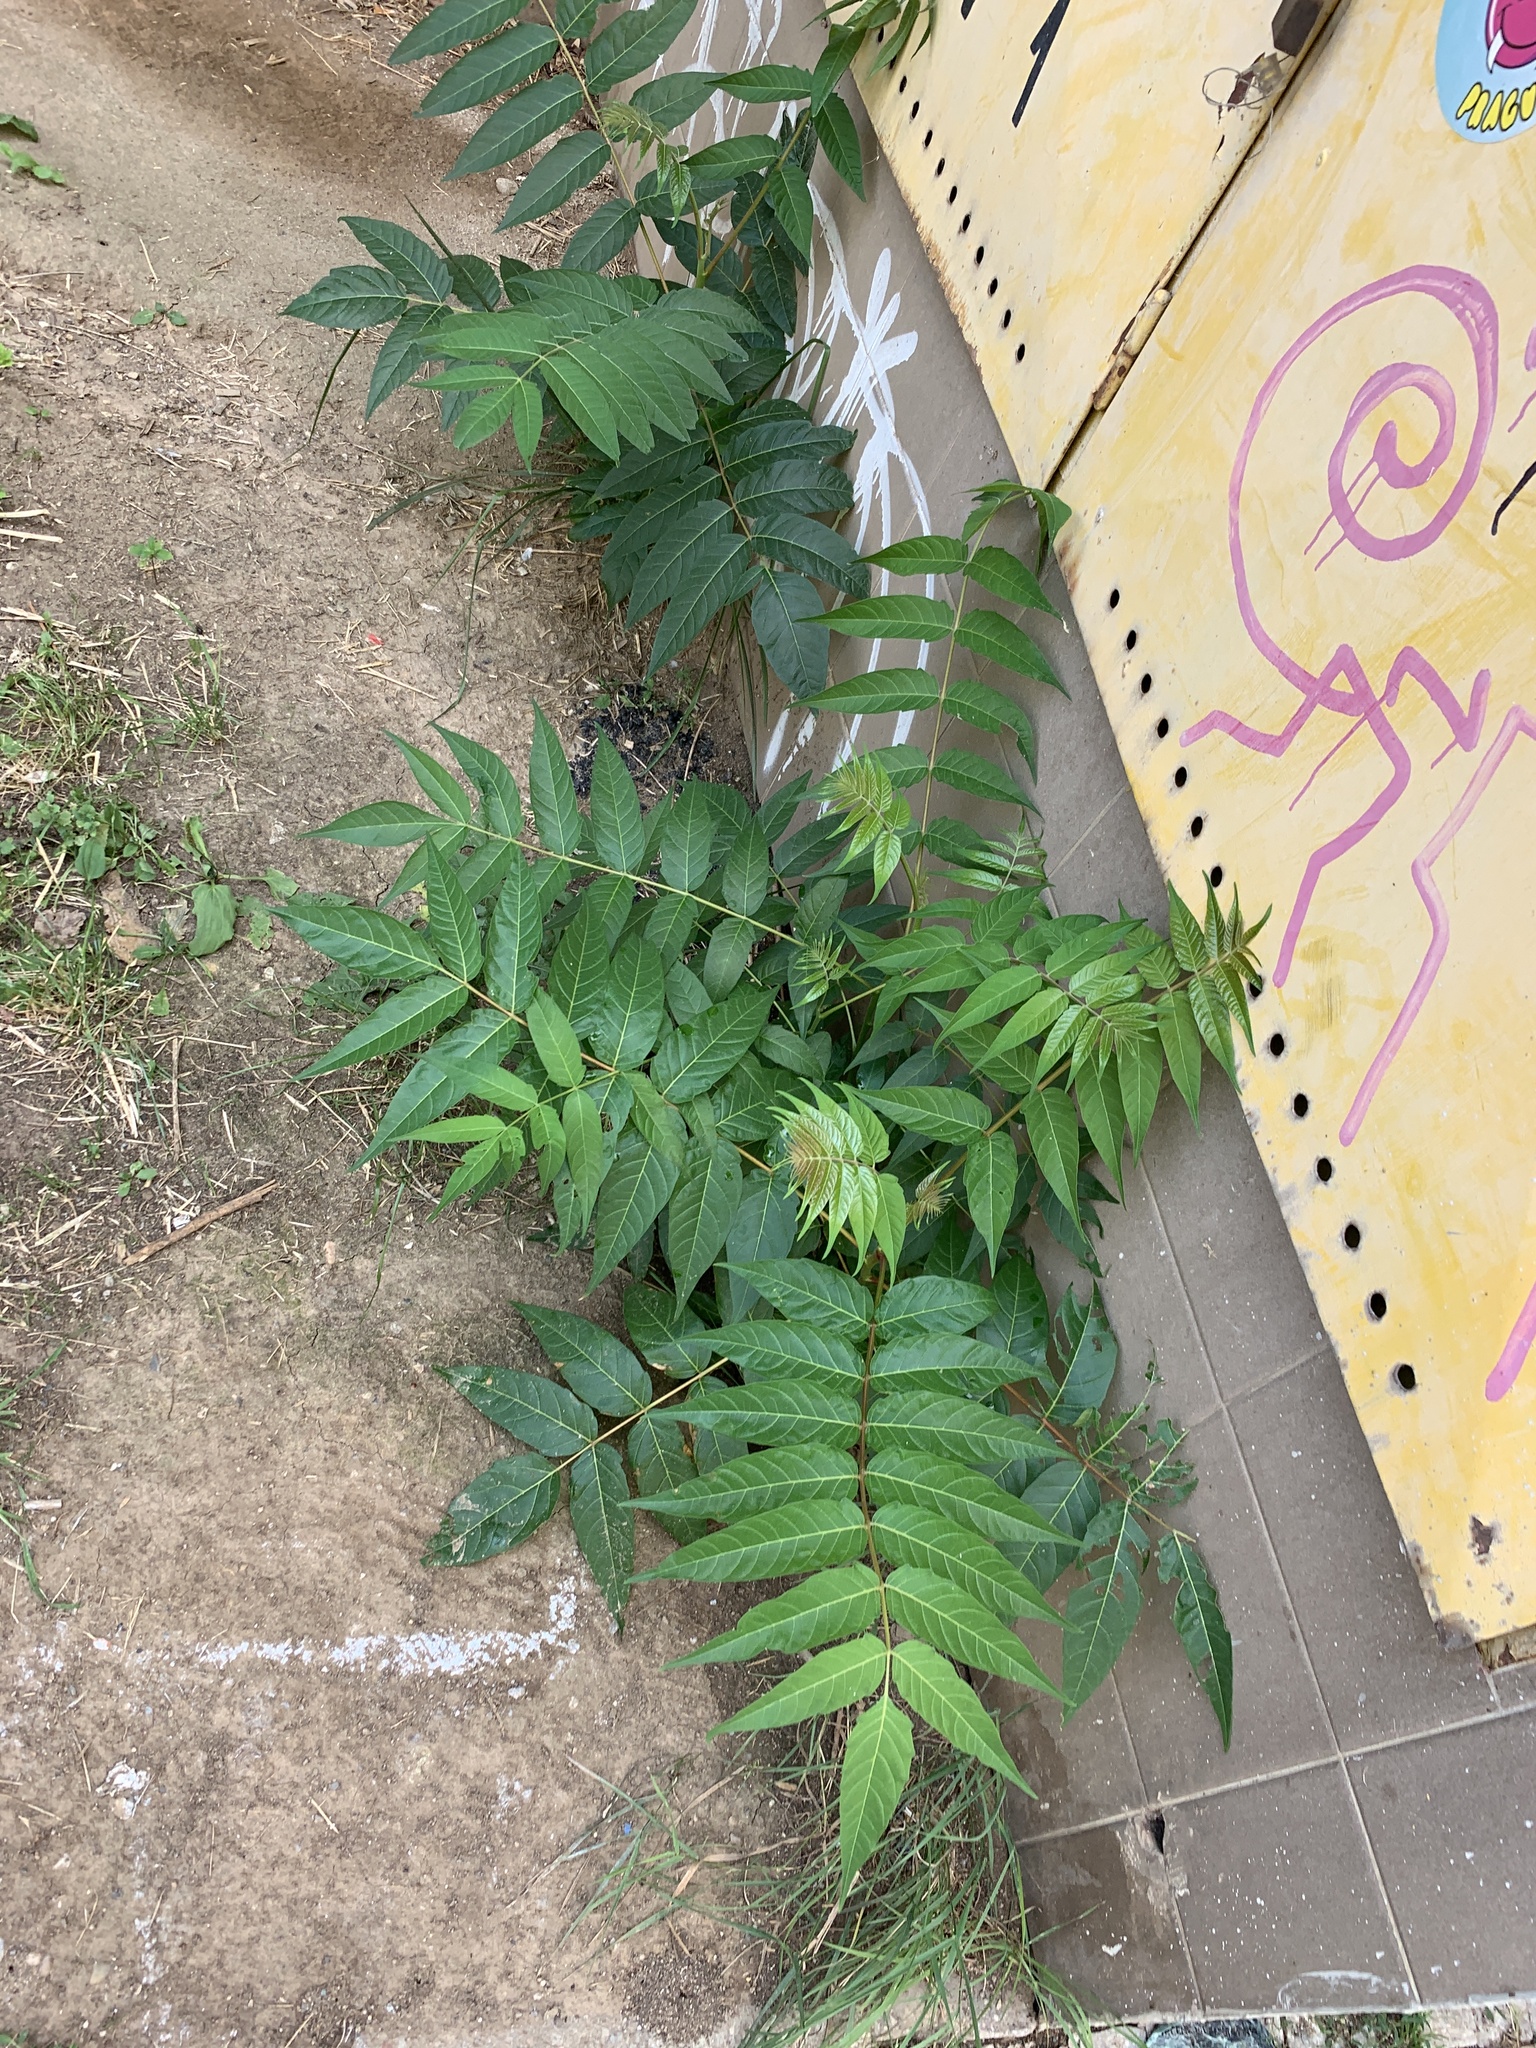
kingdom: Plantae
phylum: Tracheophyta
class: Magnoliopsida
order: Sapindales
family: Simaroubaceae
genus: Ailanthus
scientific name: Ailanthus altissima
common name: Tree-of-heaven
